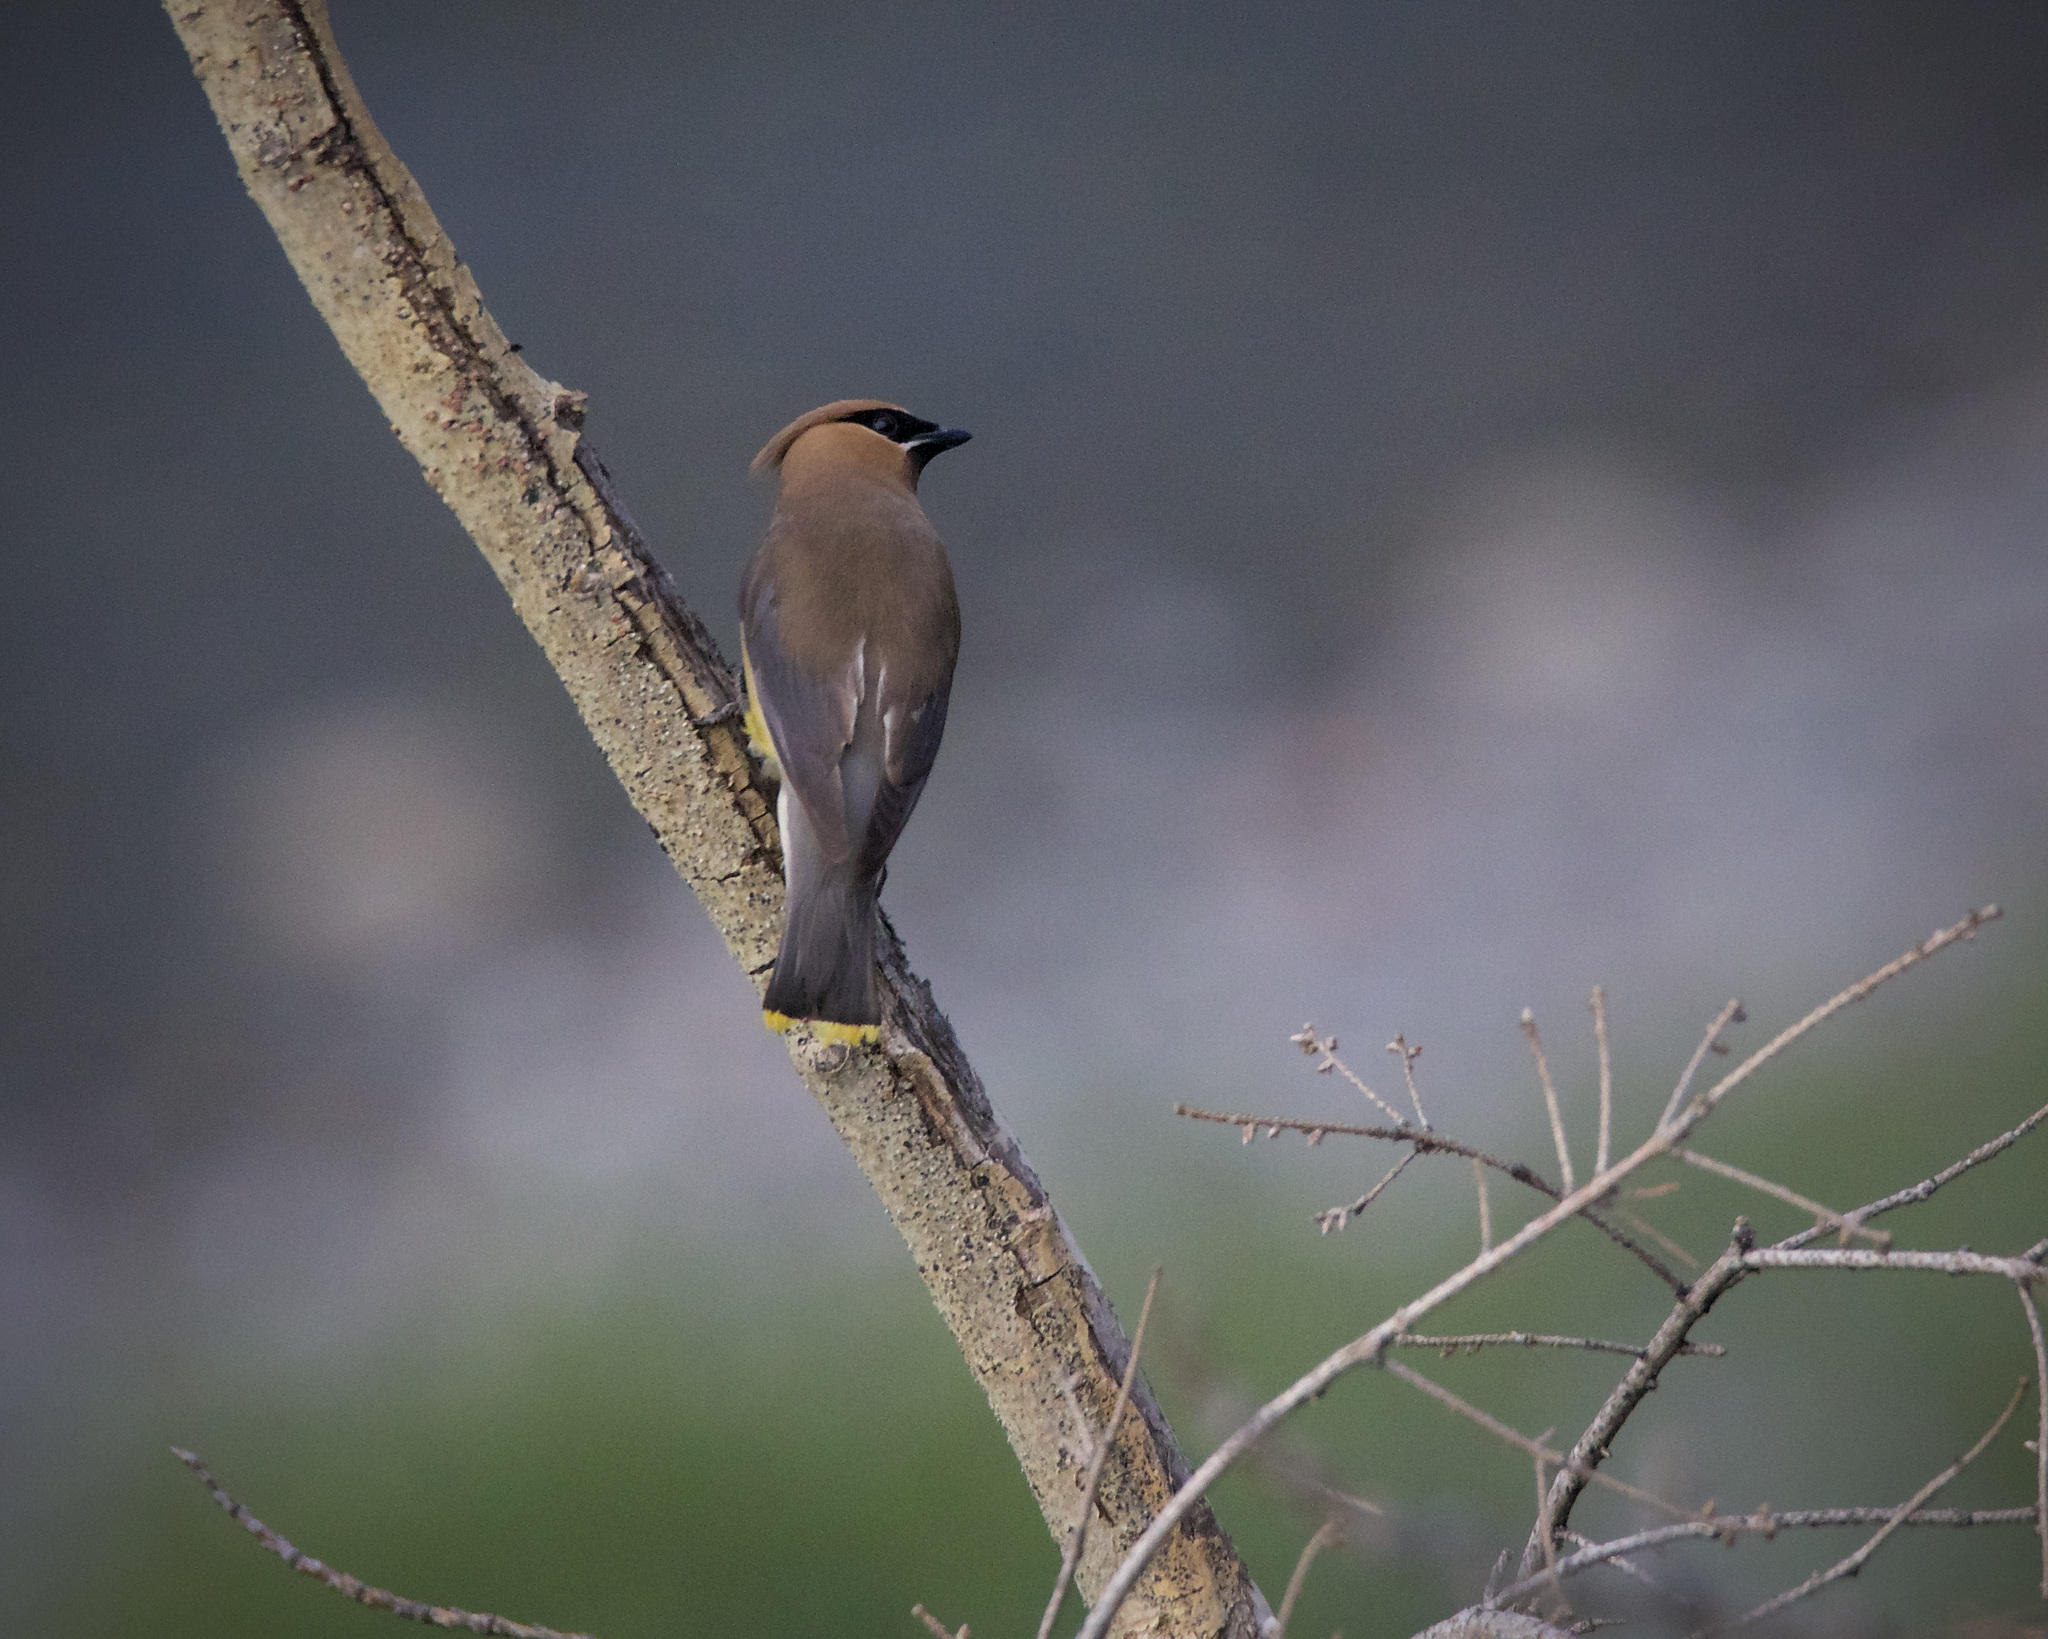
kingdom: Animalia
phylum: Chordata
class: Aves
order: Passeriformes
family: Bombycillidae
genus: Bombycilla
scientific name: Bombycilla cedrorum
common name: Cedar waxwing
